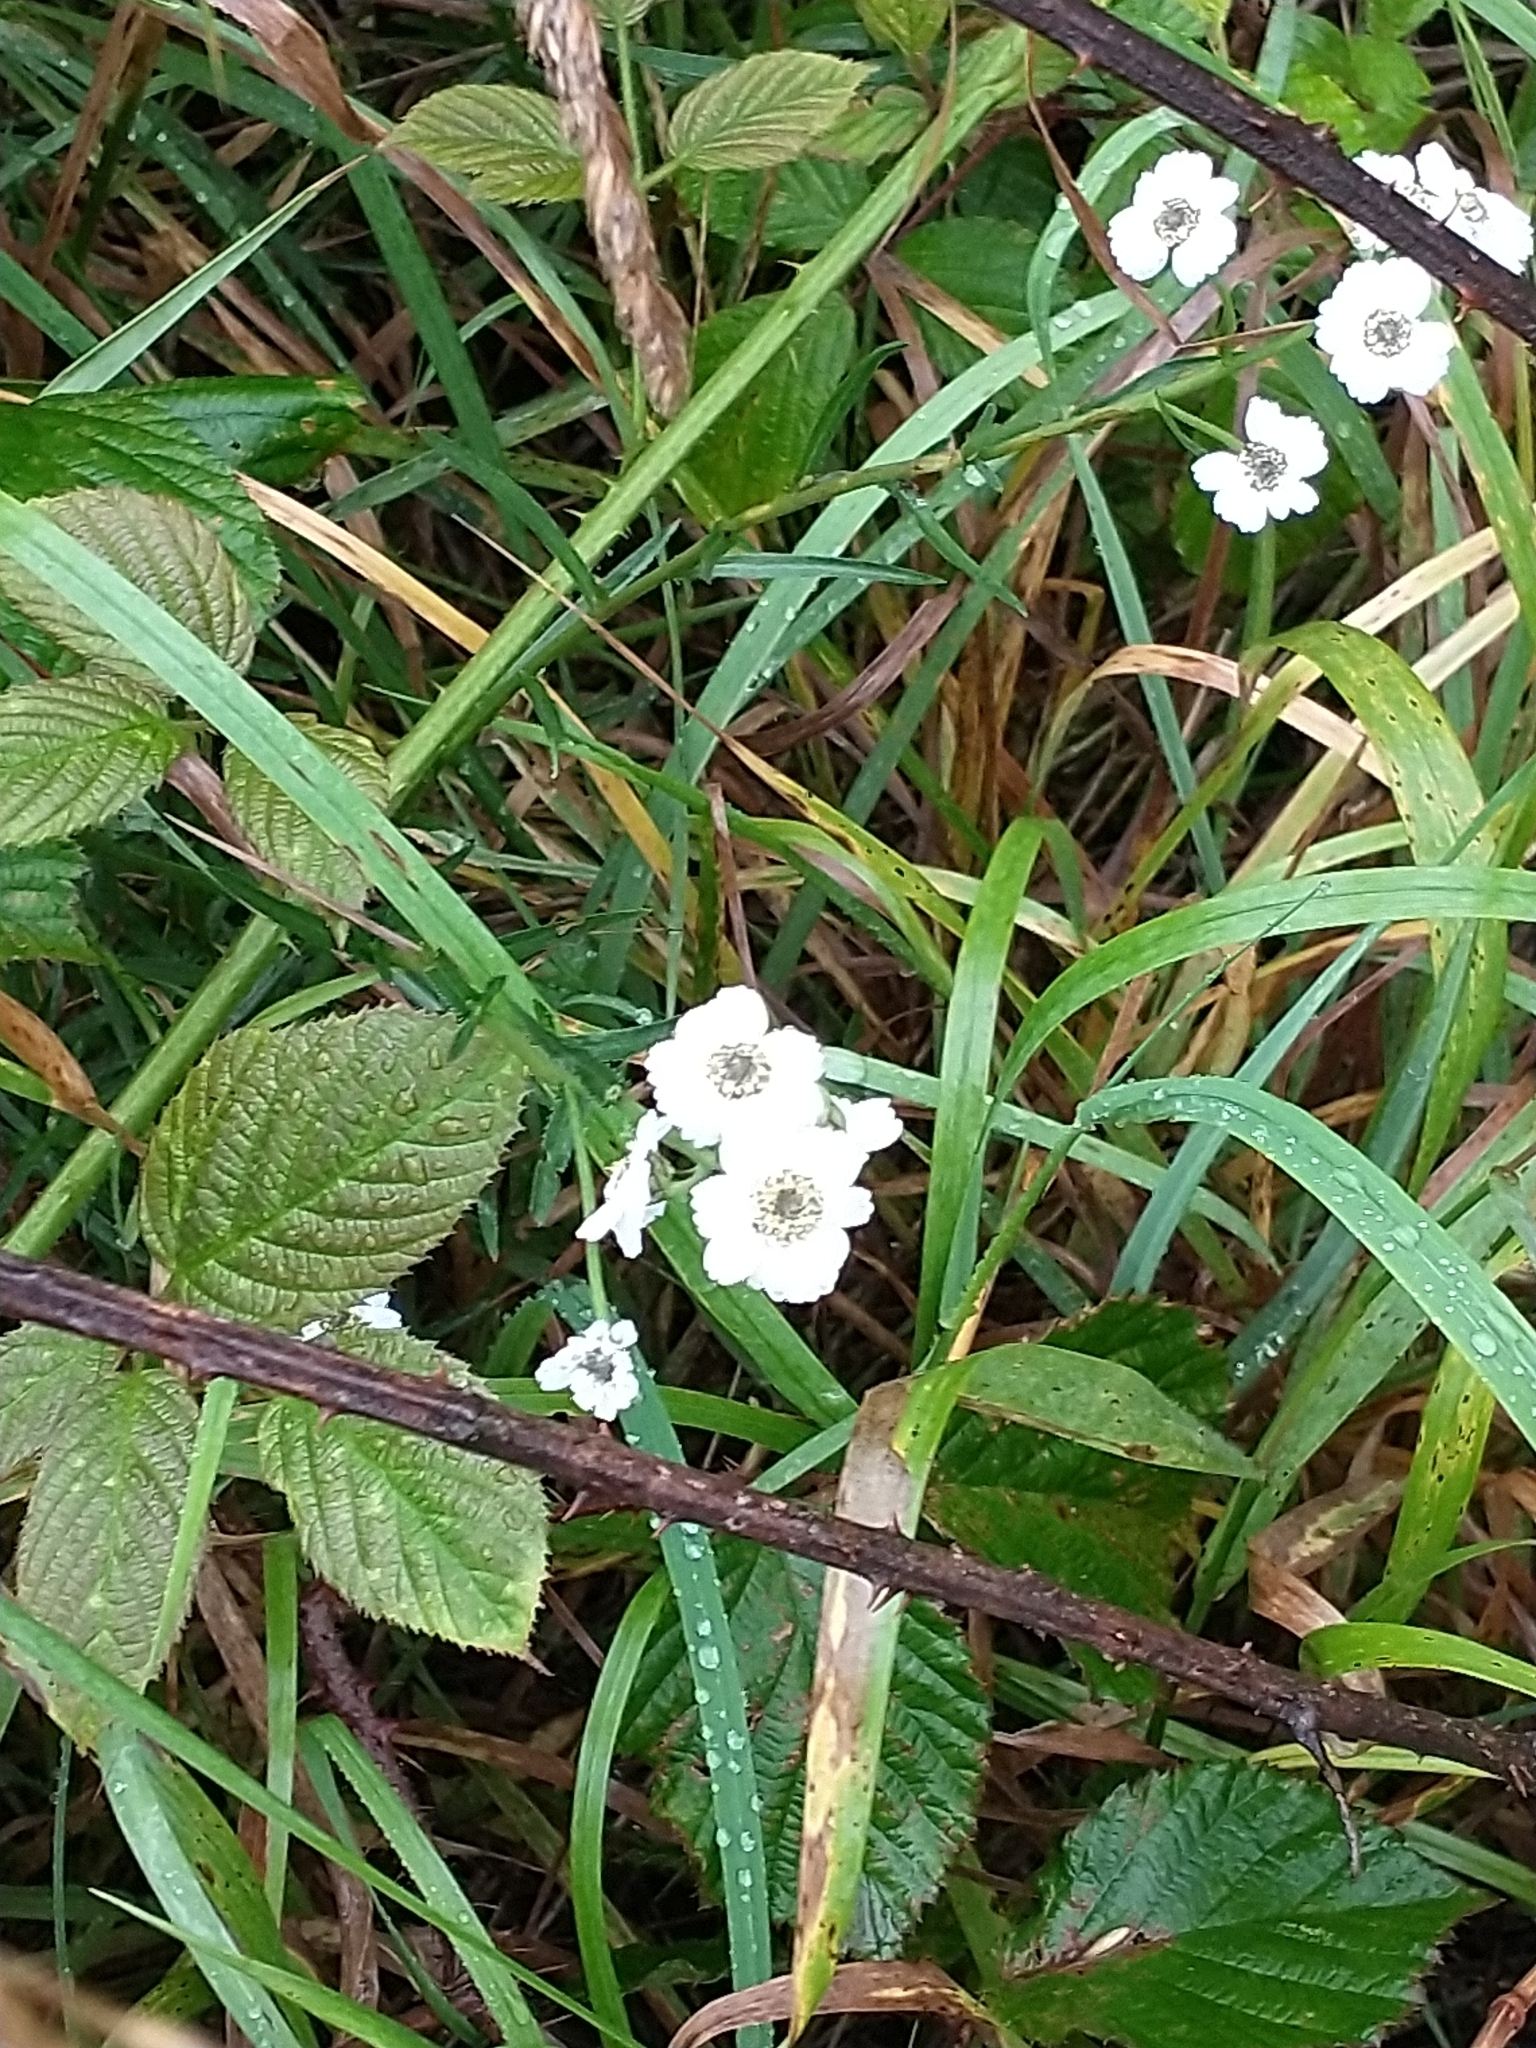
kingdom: Plantae
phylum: Tracheophyta
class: Magnoliopsida
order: Asterales
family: Asteraceae
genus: Achillea
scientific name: Achillea ptarmica
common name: Sneezeweed
